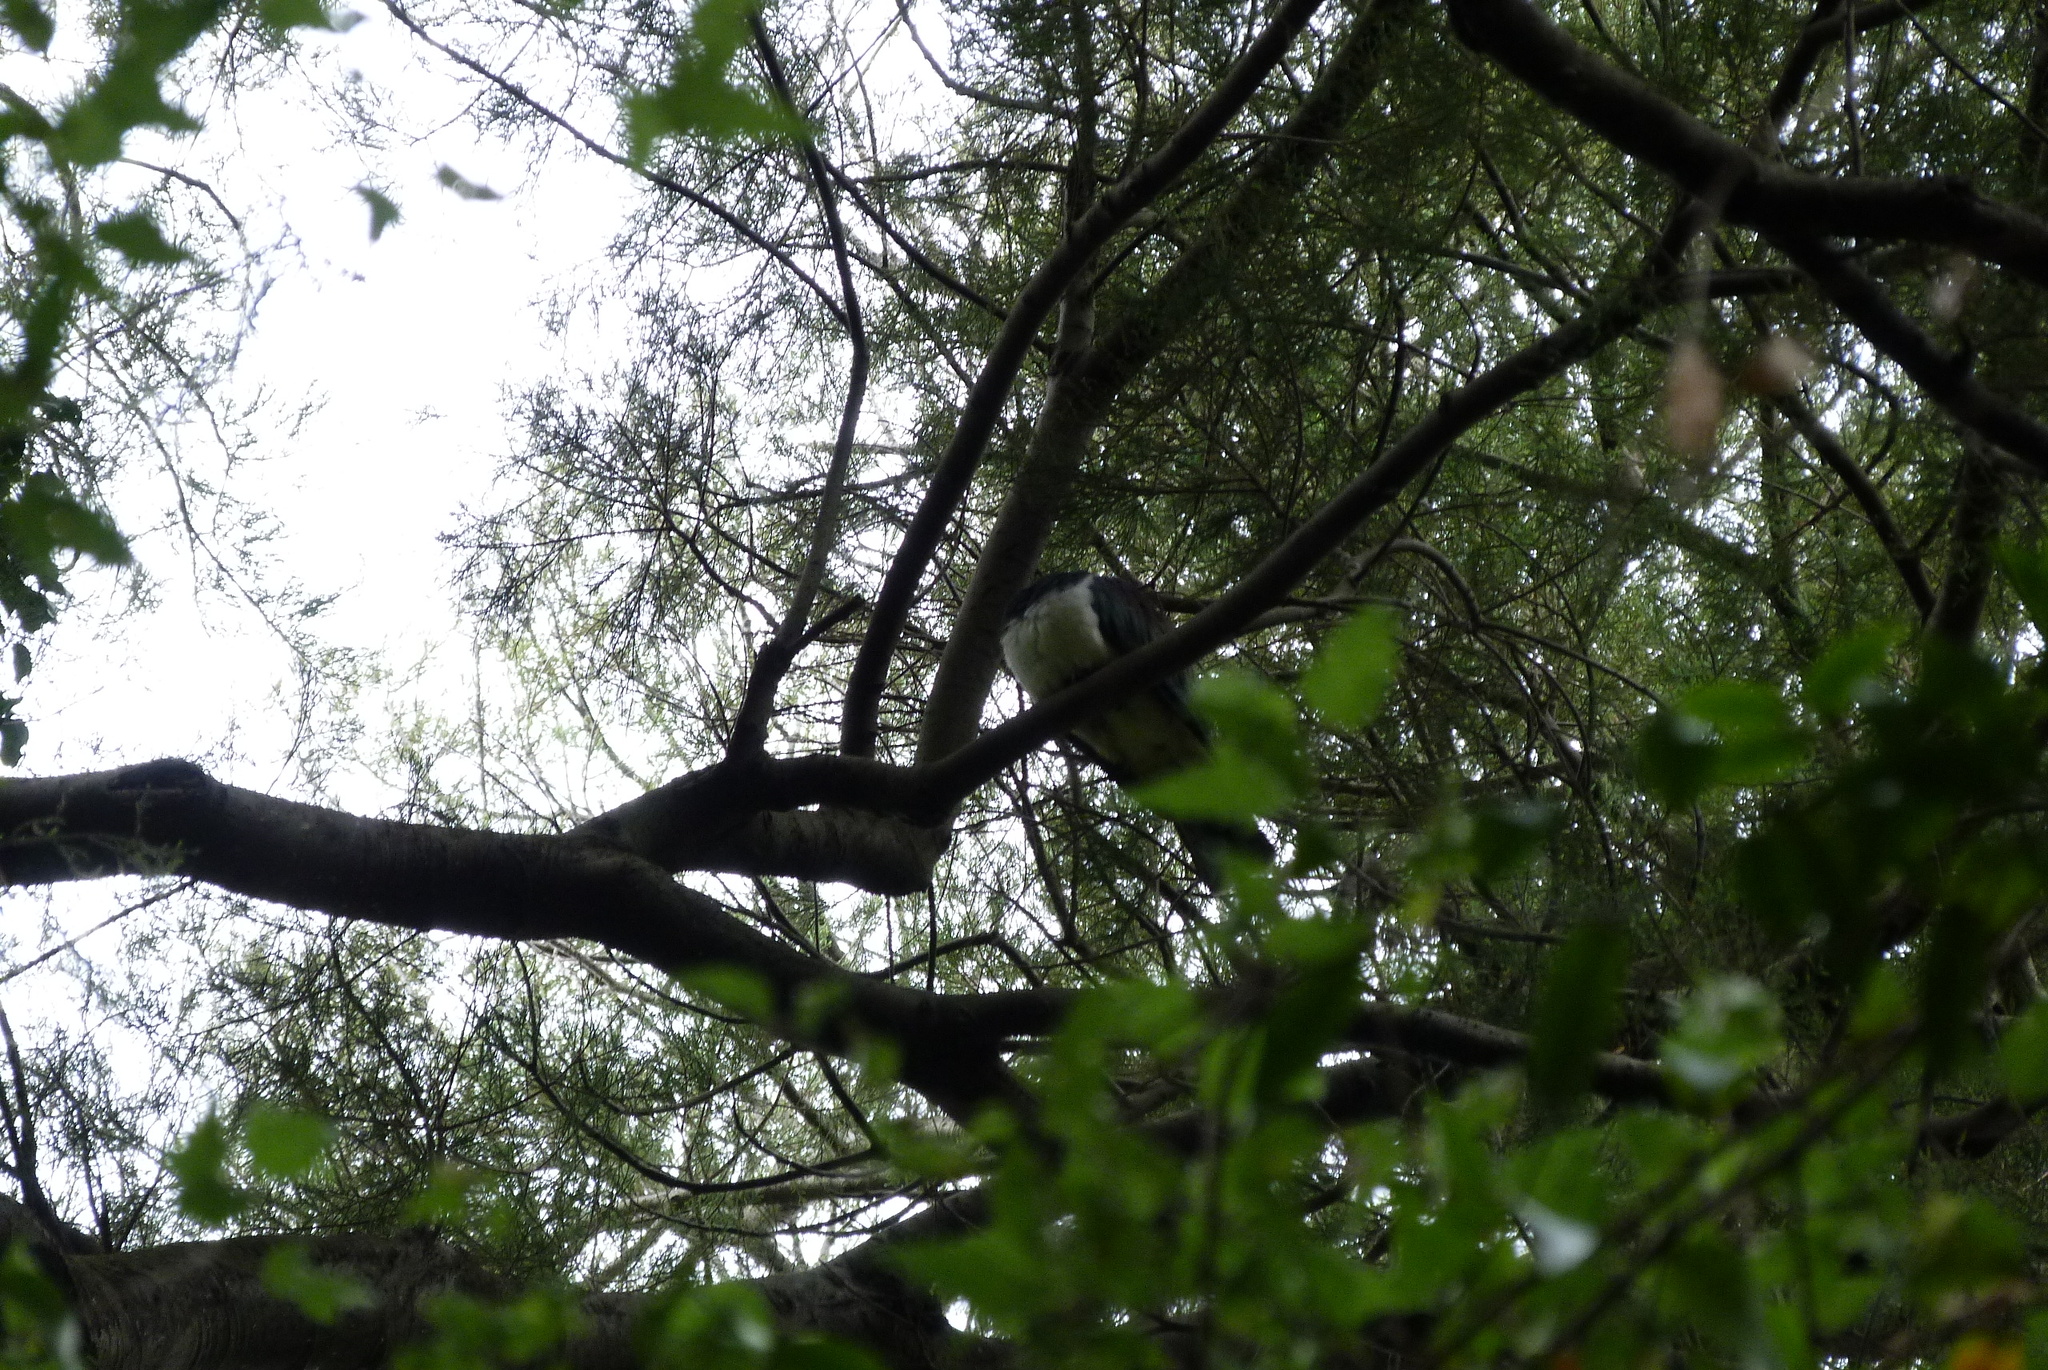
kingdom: Animalia
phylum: Chordata
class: Aves
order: Columbiformes
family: Columbidae
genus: Hemiphaga
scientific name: Hemiphaga novaeseelandiae
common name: New zealand pigeon
